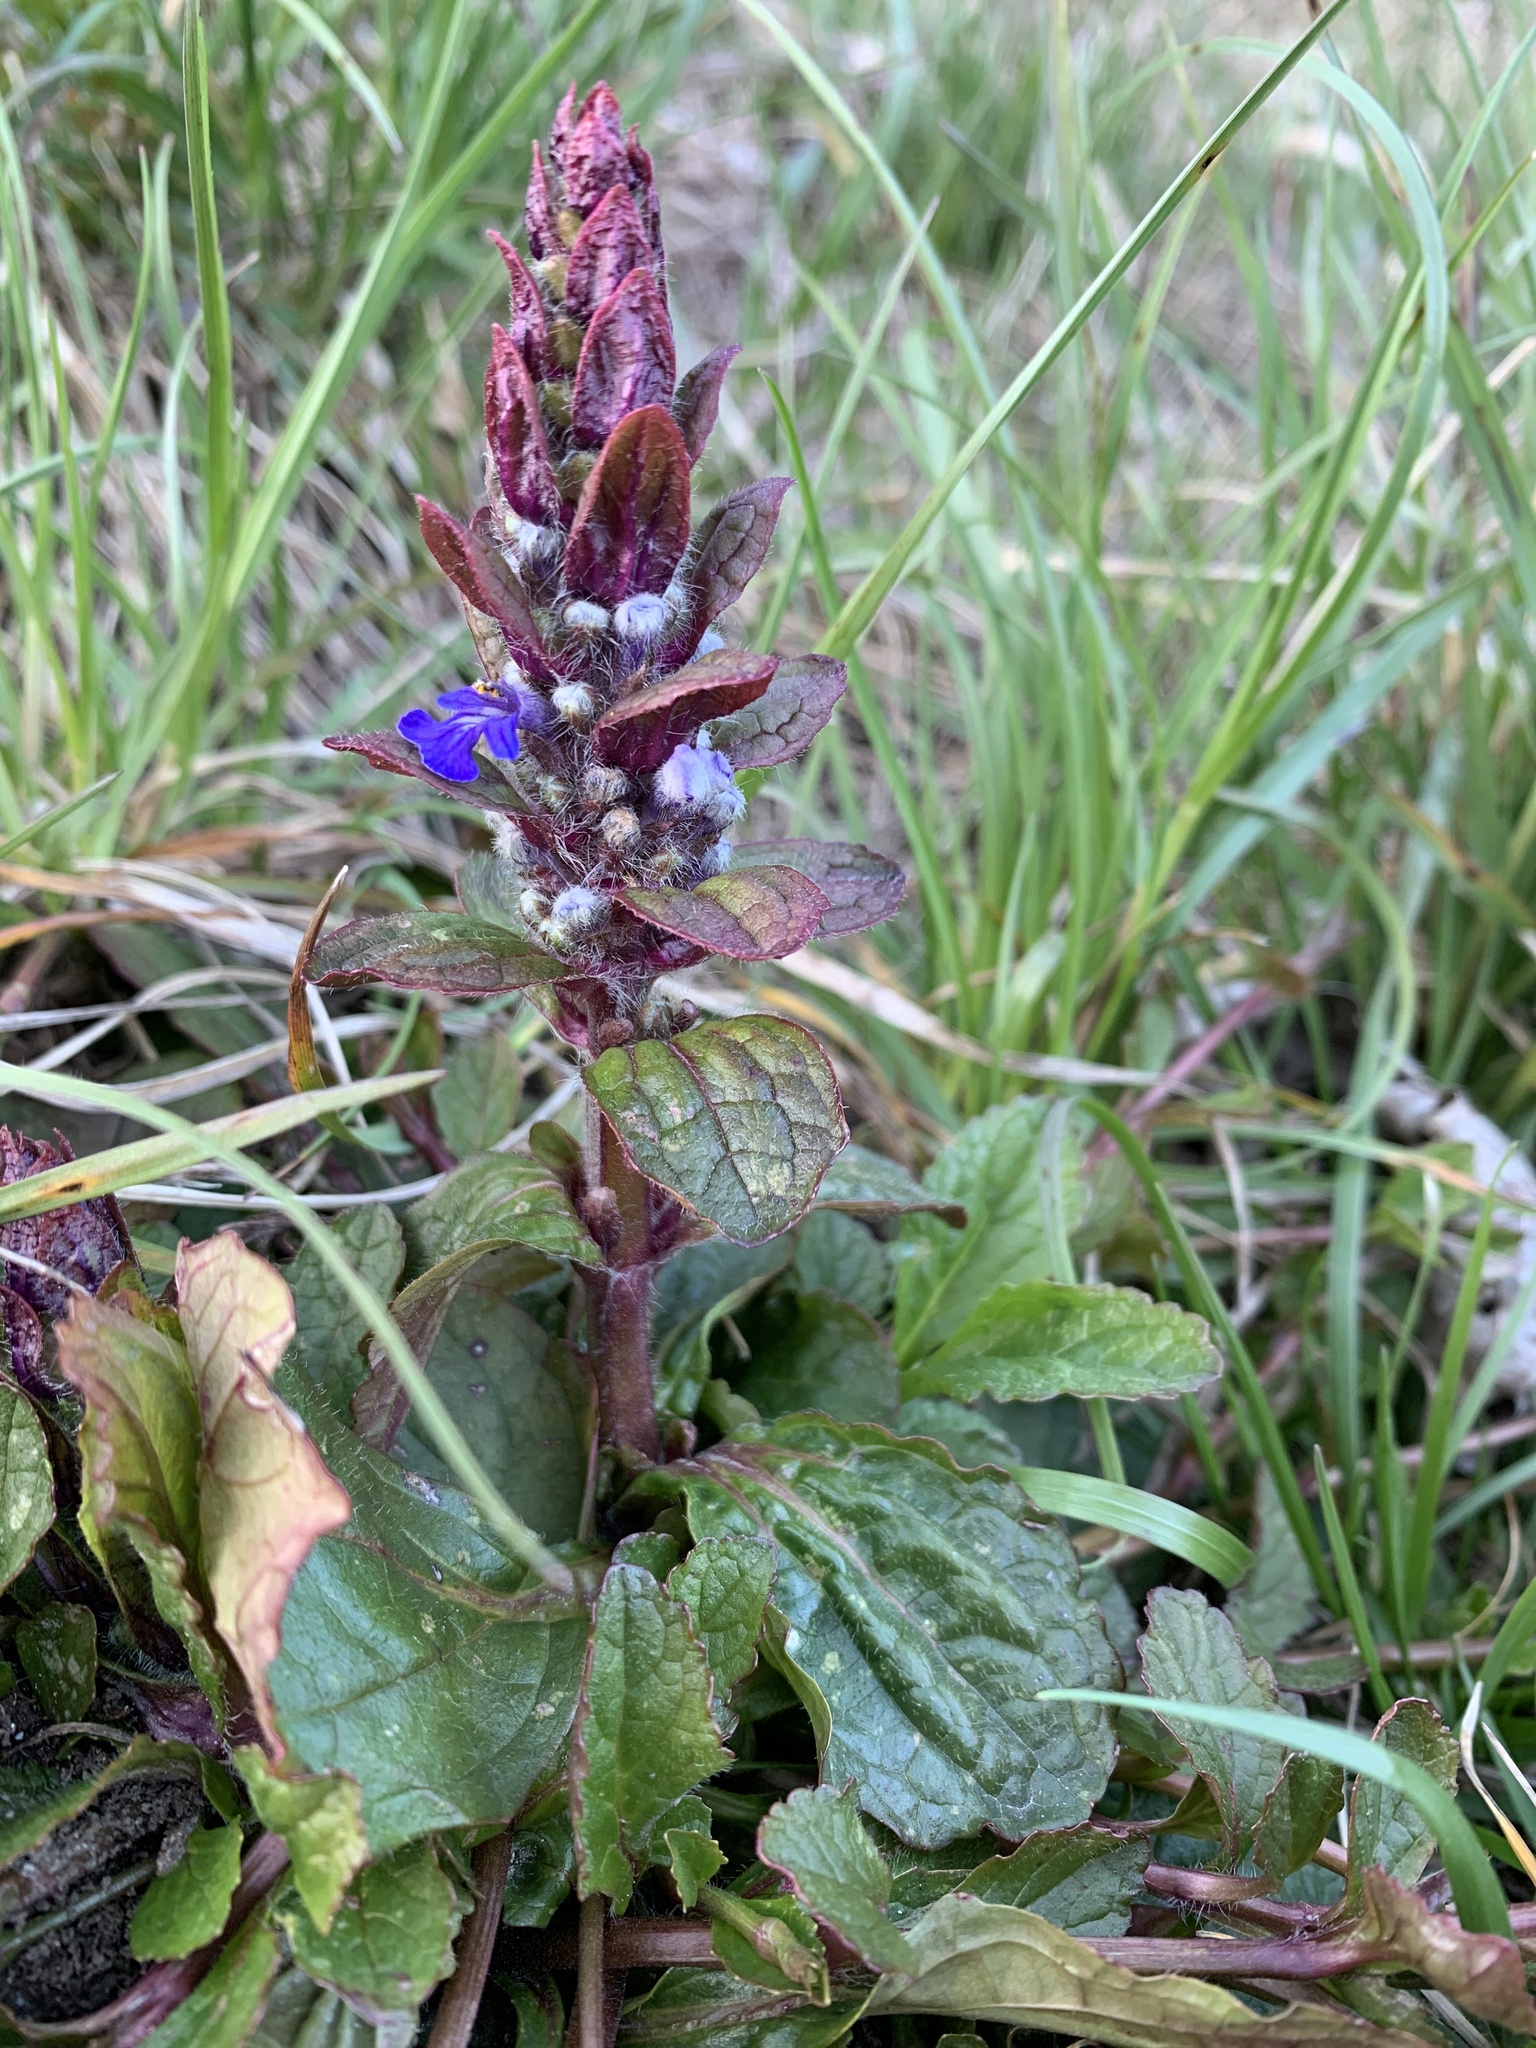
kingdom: Plantae
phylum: Tracheophyta
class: Magnoliopsida
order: Lamiales
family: Lamiaceae
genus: Ajuga
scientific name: Ajuga reptans
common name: Bugle
